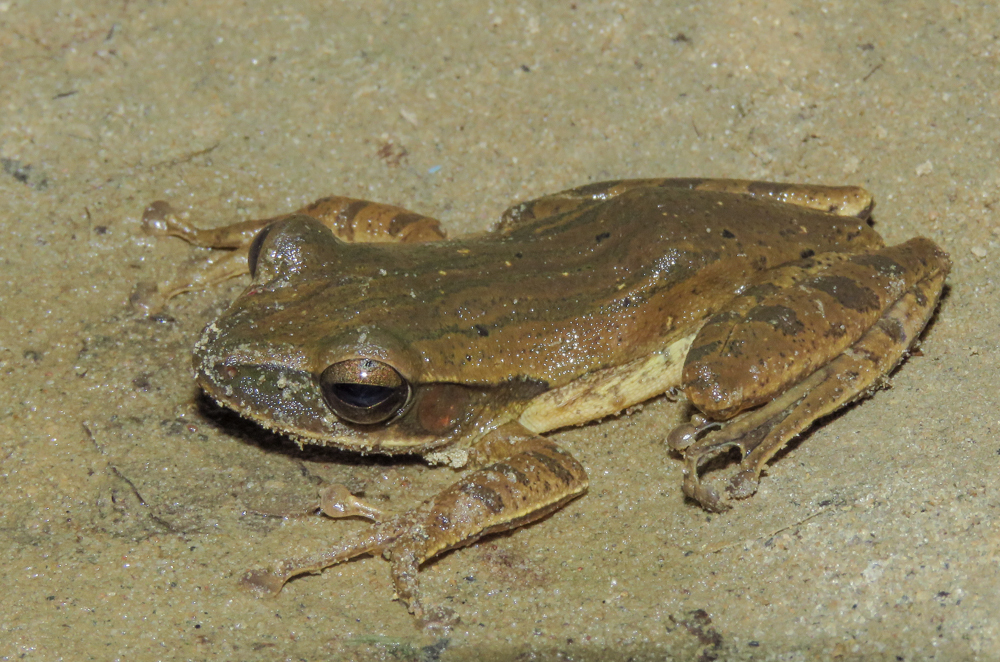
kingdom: Animalia
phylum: Chordata
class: Amphibia
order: Anura
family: Rhacophoridae
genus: Polypedates
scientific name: Polypedates leucomystax
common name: Common tree frog/four-lined tree frog
